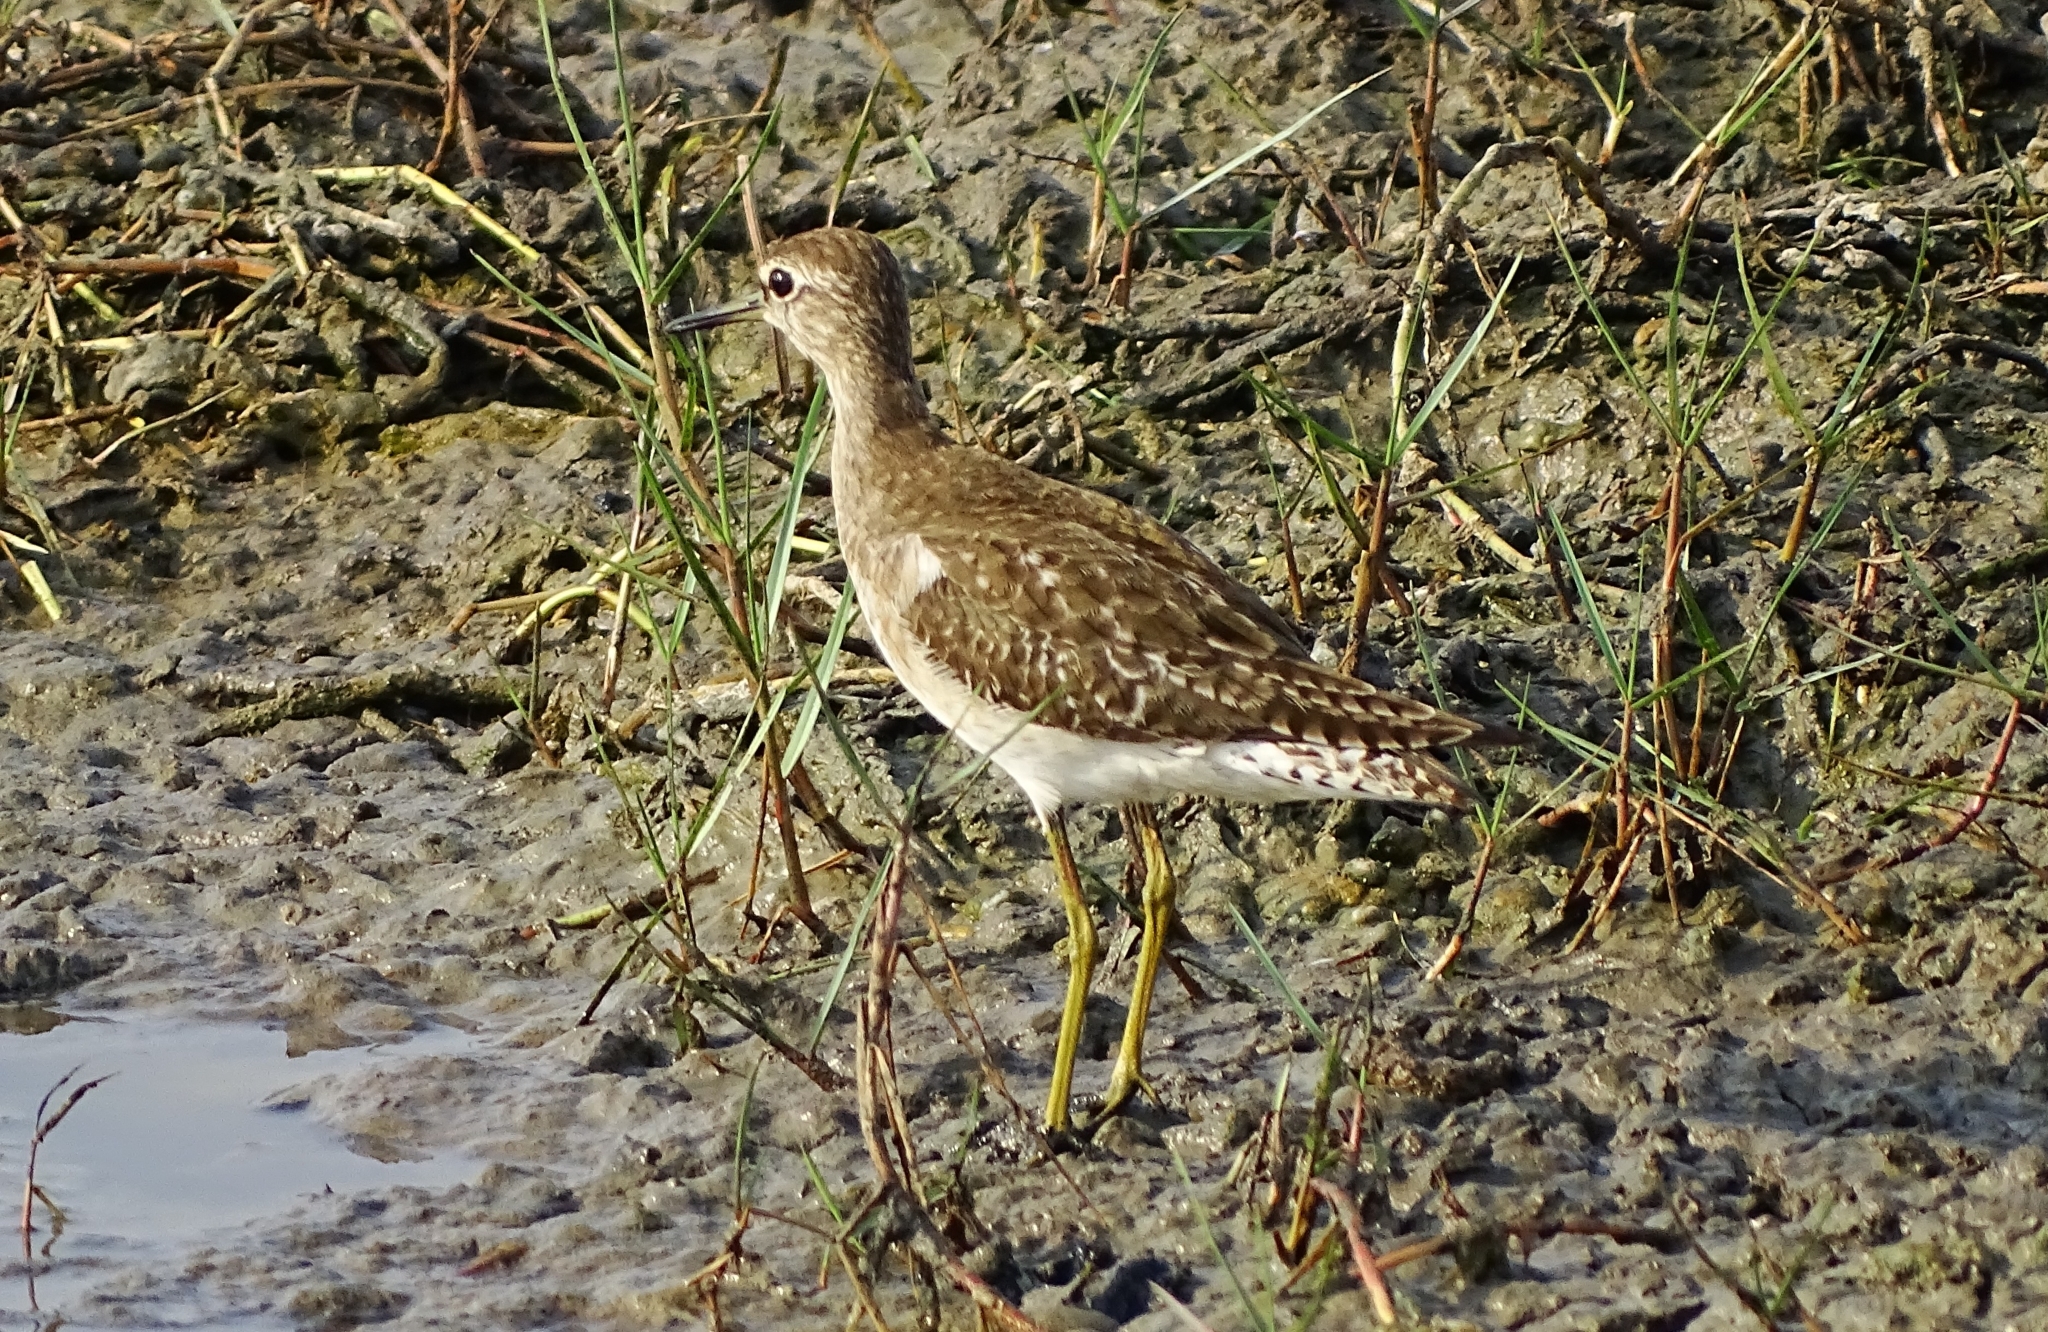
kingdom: Animalia
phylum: Chordata
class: Aves
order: Charadriiformes
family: Scolopacidae
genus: Tringa
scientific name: Tringa glareola
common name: Wood sandpiper
